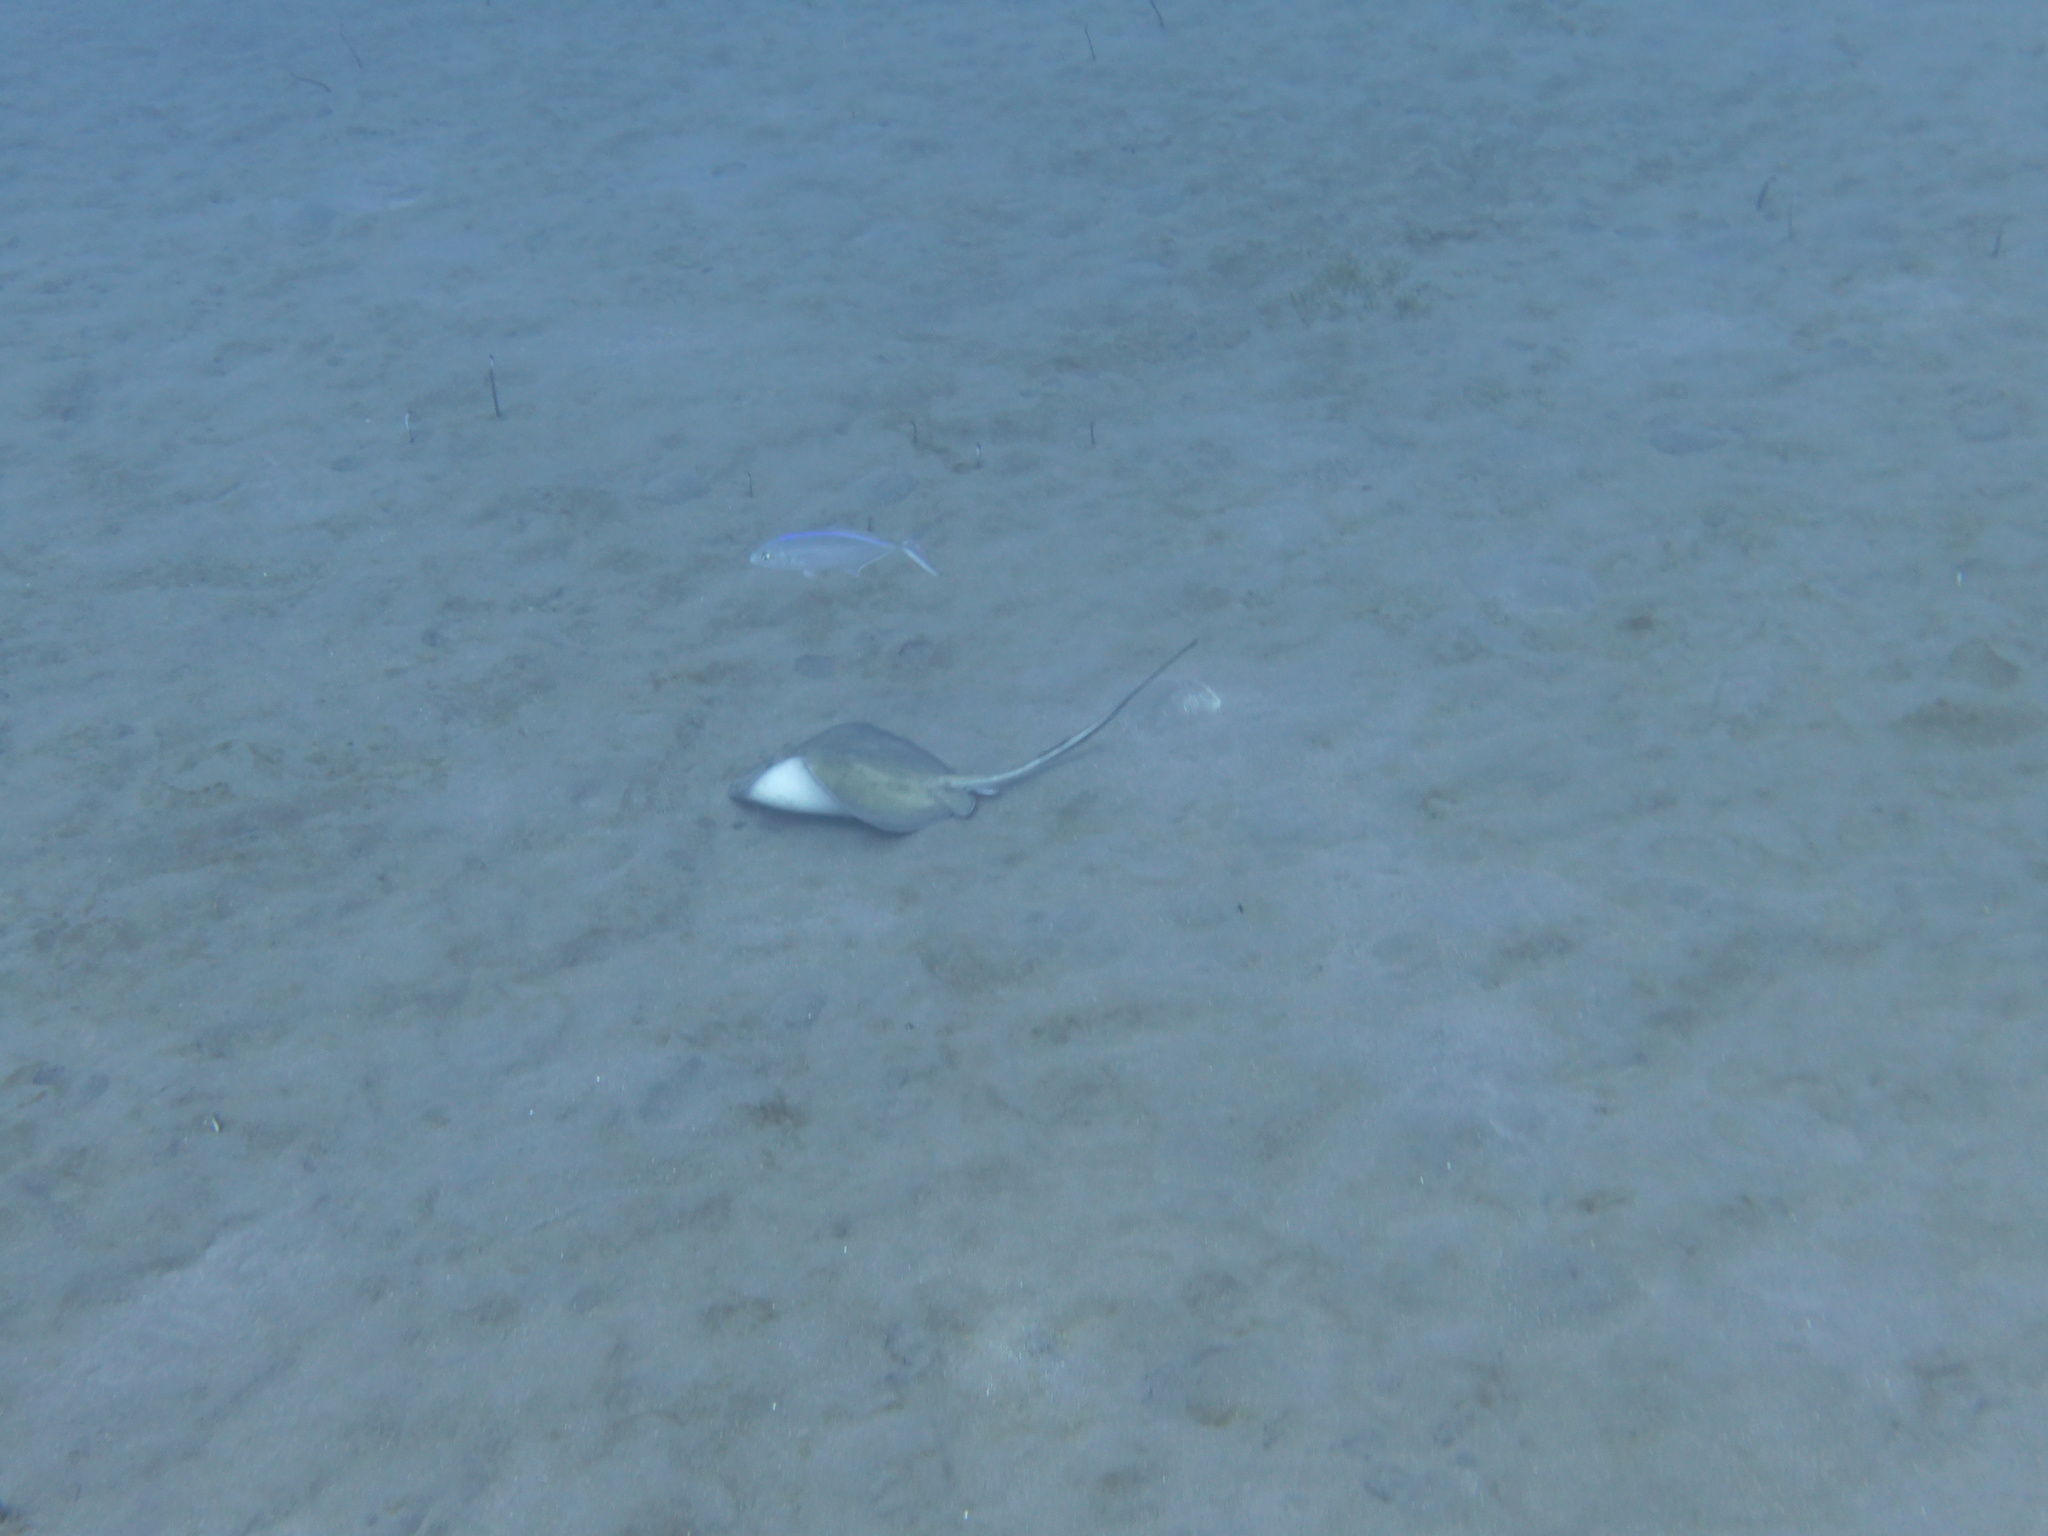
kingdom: Animalia
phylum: Chordata
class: Elasmobranchii
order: Myliobatiformes
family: Dasyatidae
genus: Hypanus
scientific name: Hypanus americanus
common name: Southern stingray
